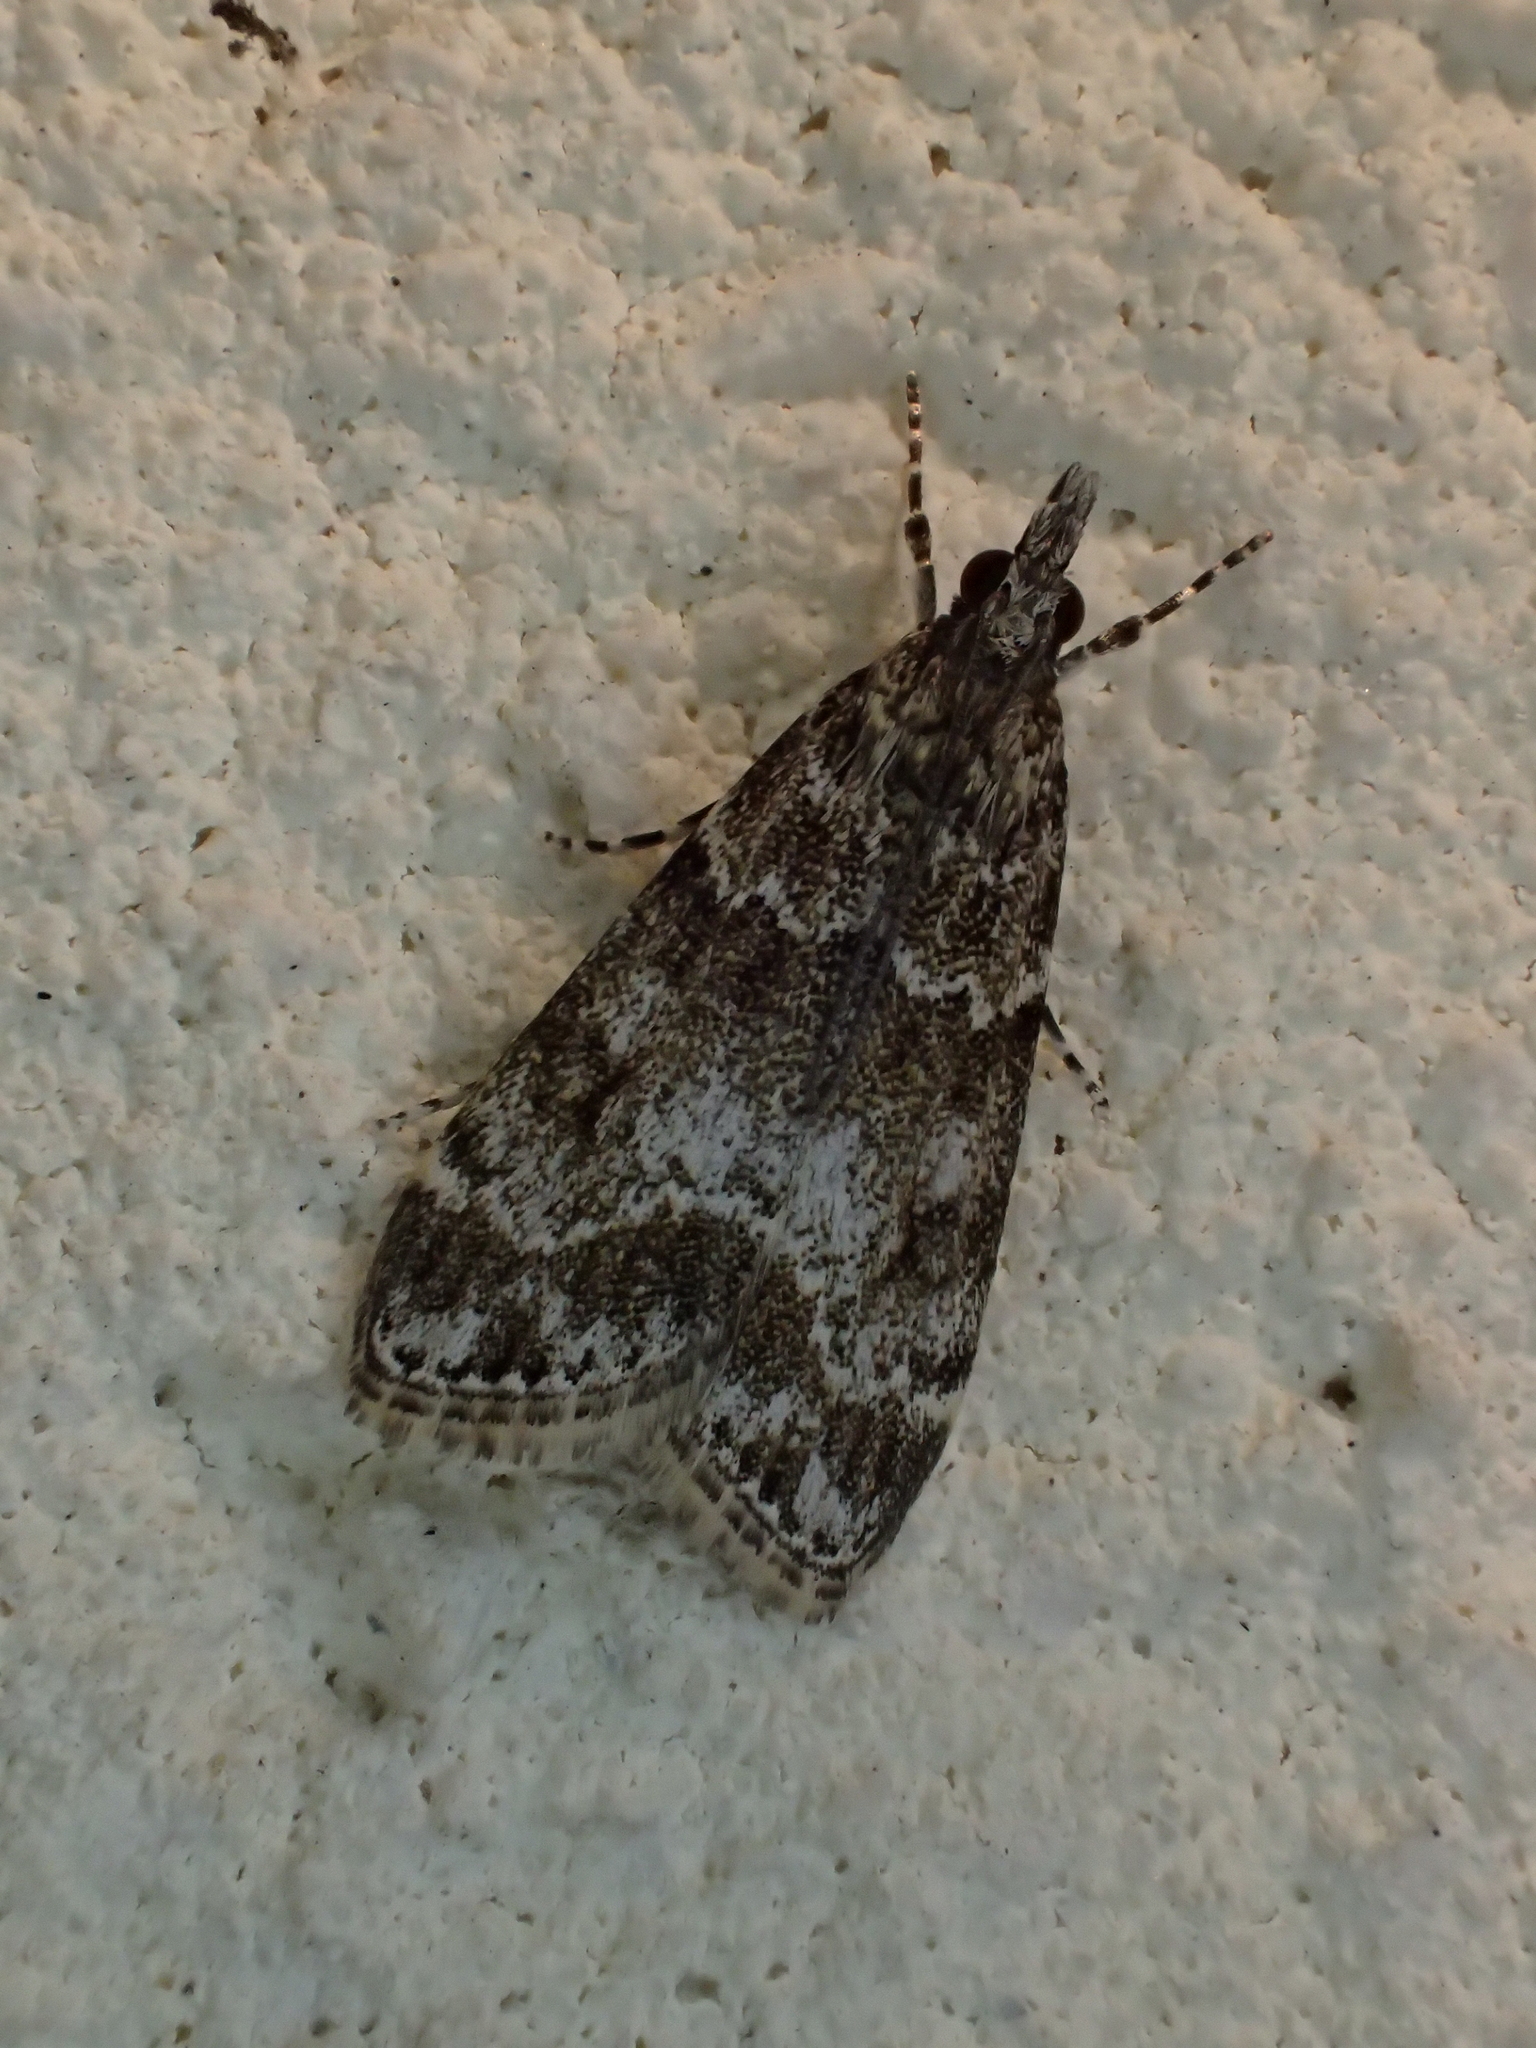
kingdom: Animalia
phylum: Arthropoda
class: Insecta
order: Lepidoptera
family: Crambidae
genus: Eudonia
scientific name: Eudonia mercurella
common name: Small grey
